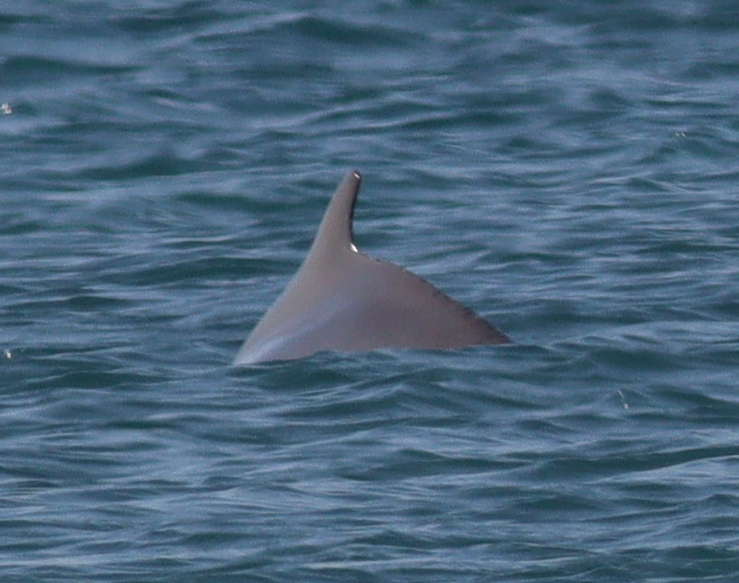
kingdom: Animalia
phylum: Chordata
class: Mammalia
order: Cetacea
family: Delphinidae
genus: Sousa
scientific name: Sousa plumbea
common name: Indian ocean humpback dolphin
